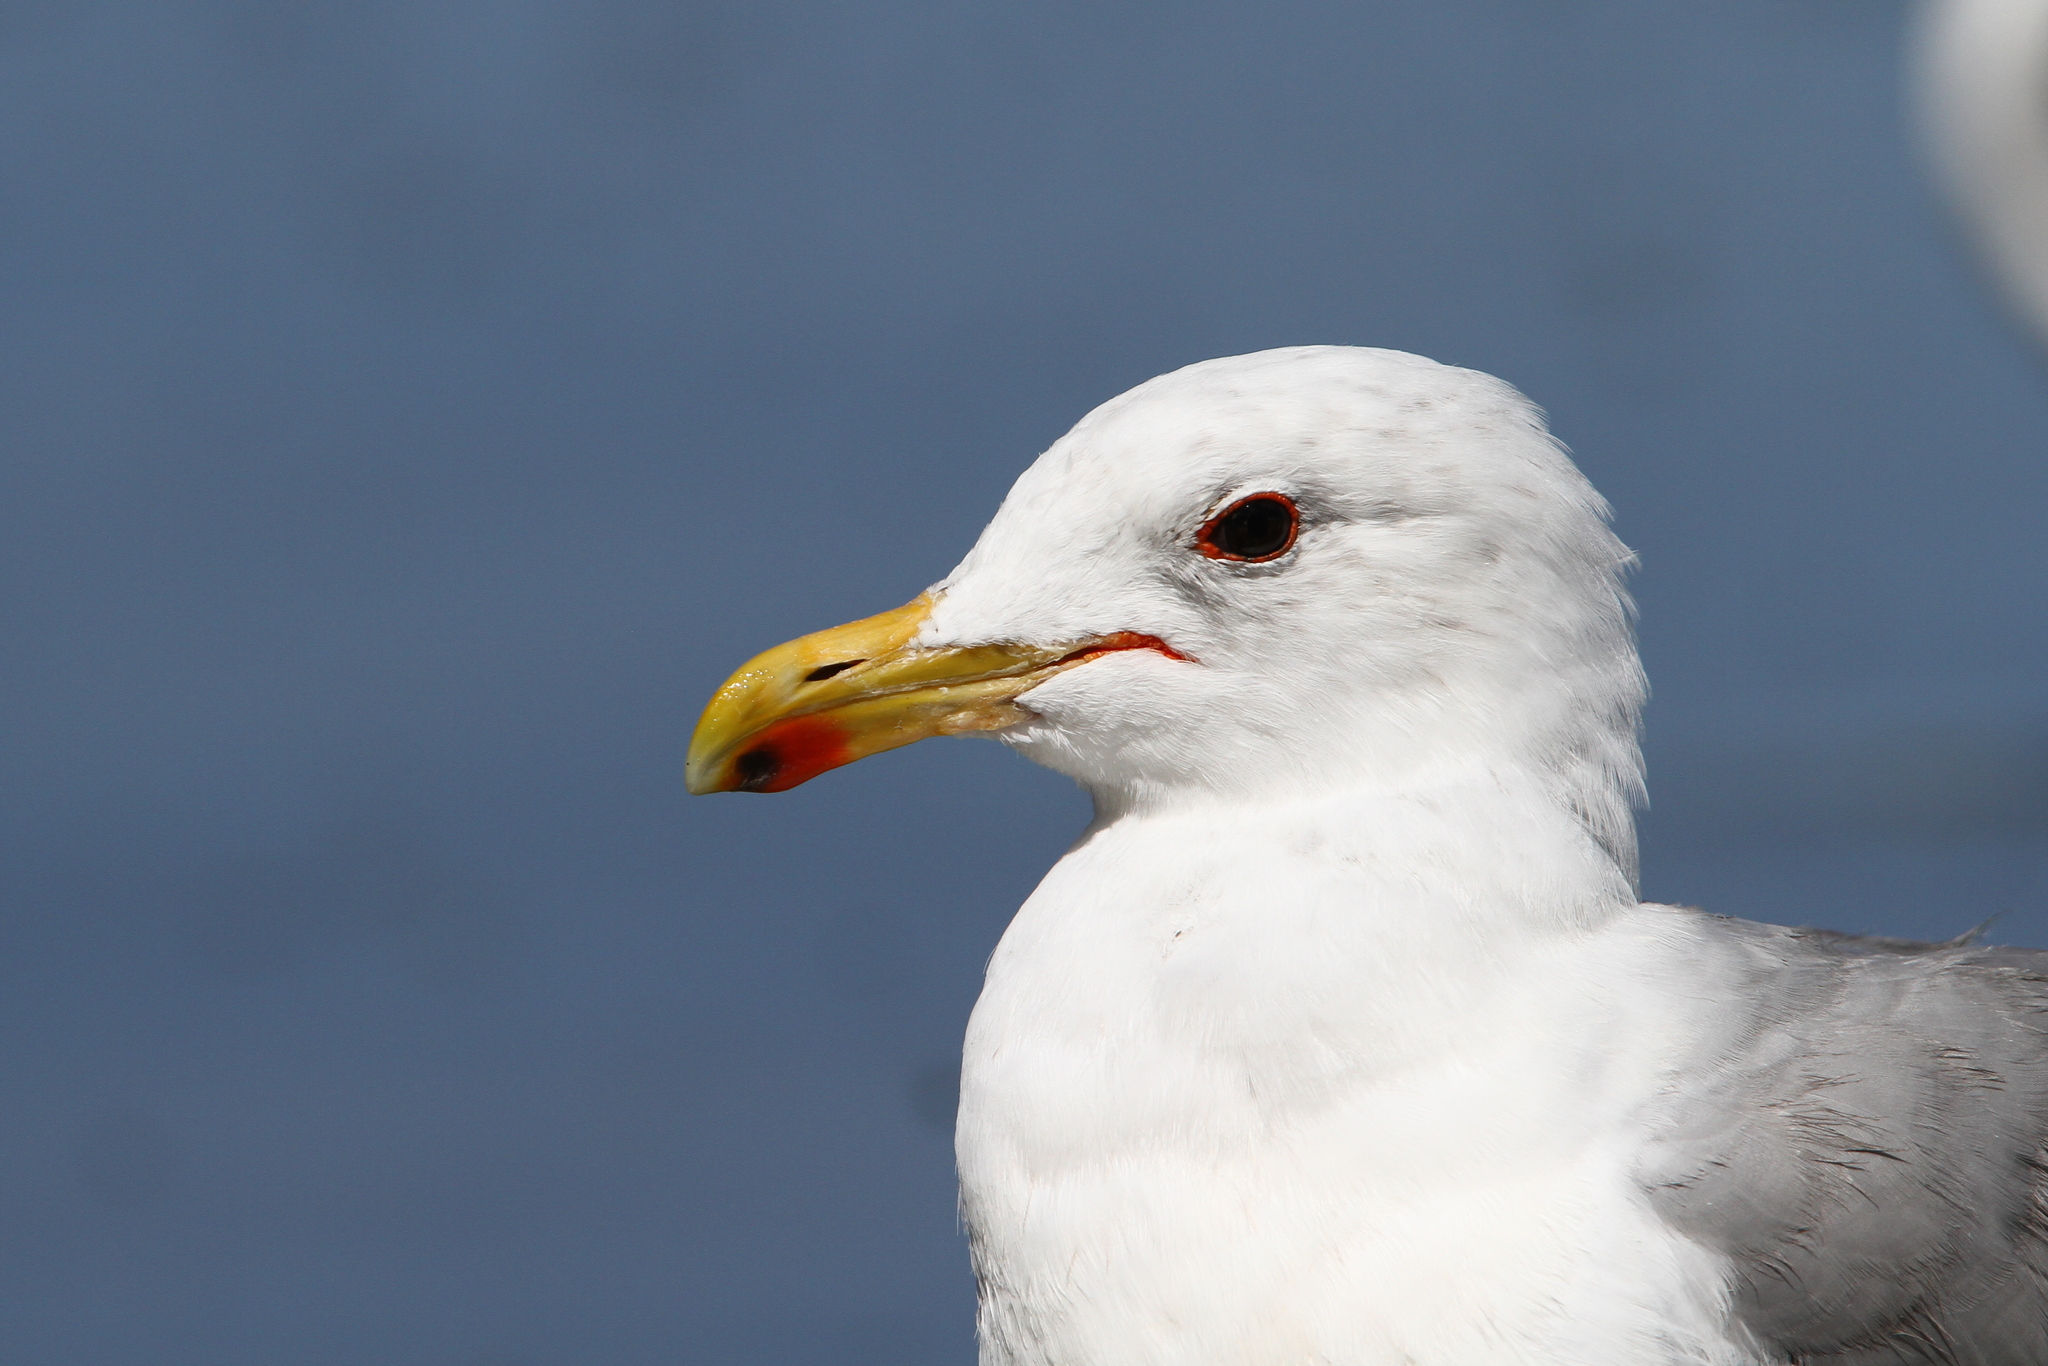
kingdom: Animalia
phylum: Chordata
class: Aves
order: Charadriiformes
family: Laridae
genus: Larus
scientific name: Larus californicus
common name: California gull
